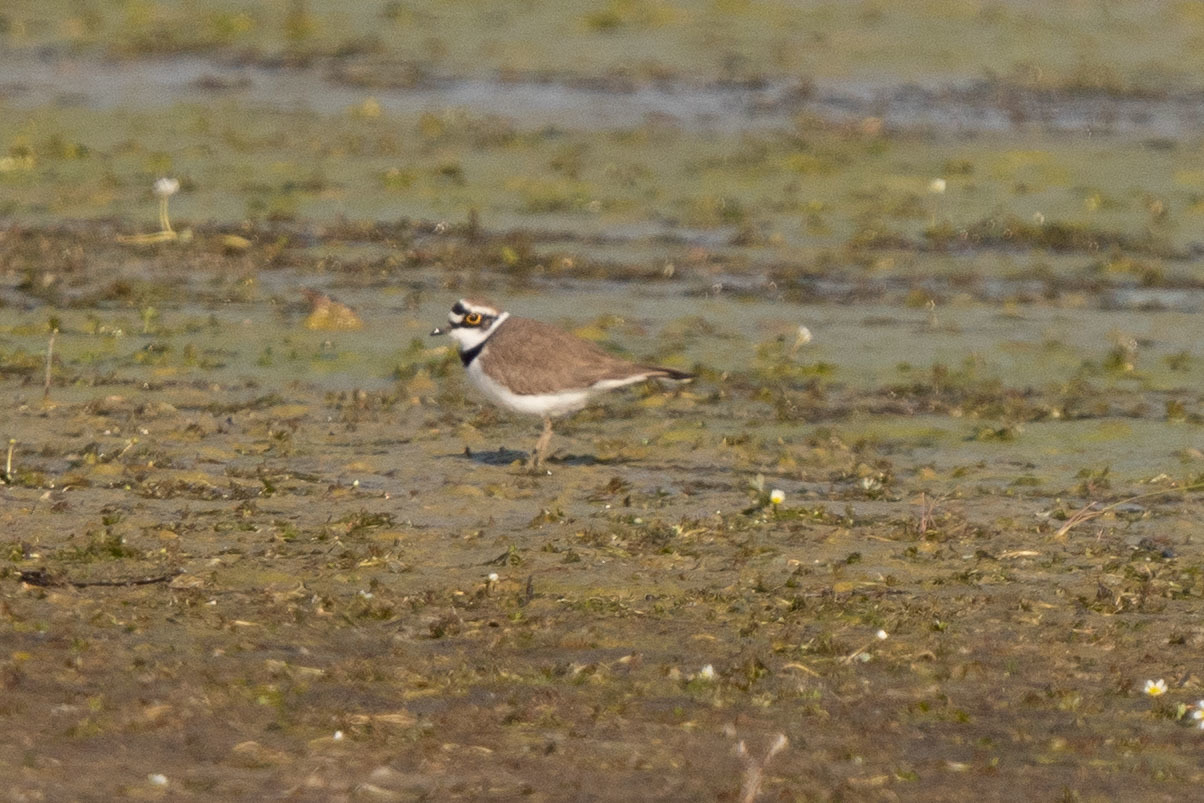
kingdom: Animalia
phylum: Chordata
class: Aves
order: Charadriiformes
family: Charadriidae
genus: Charadrius
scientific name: Charadrius dubius
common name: Little ringed plover
